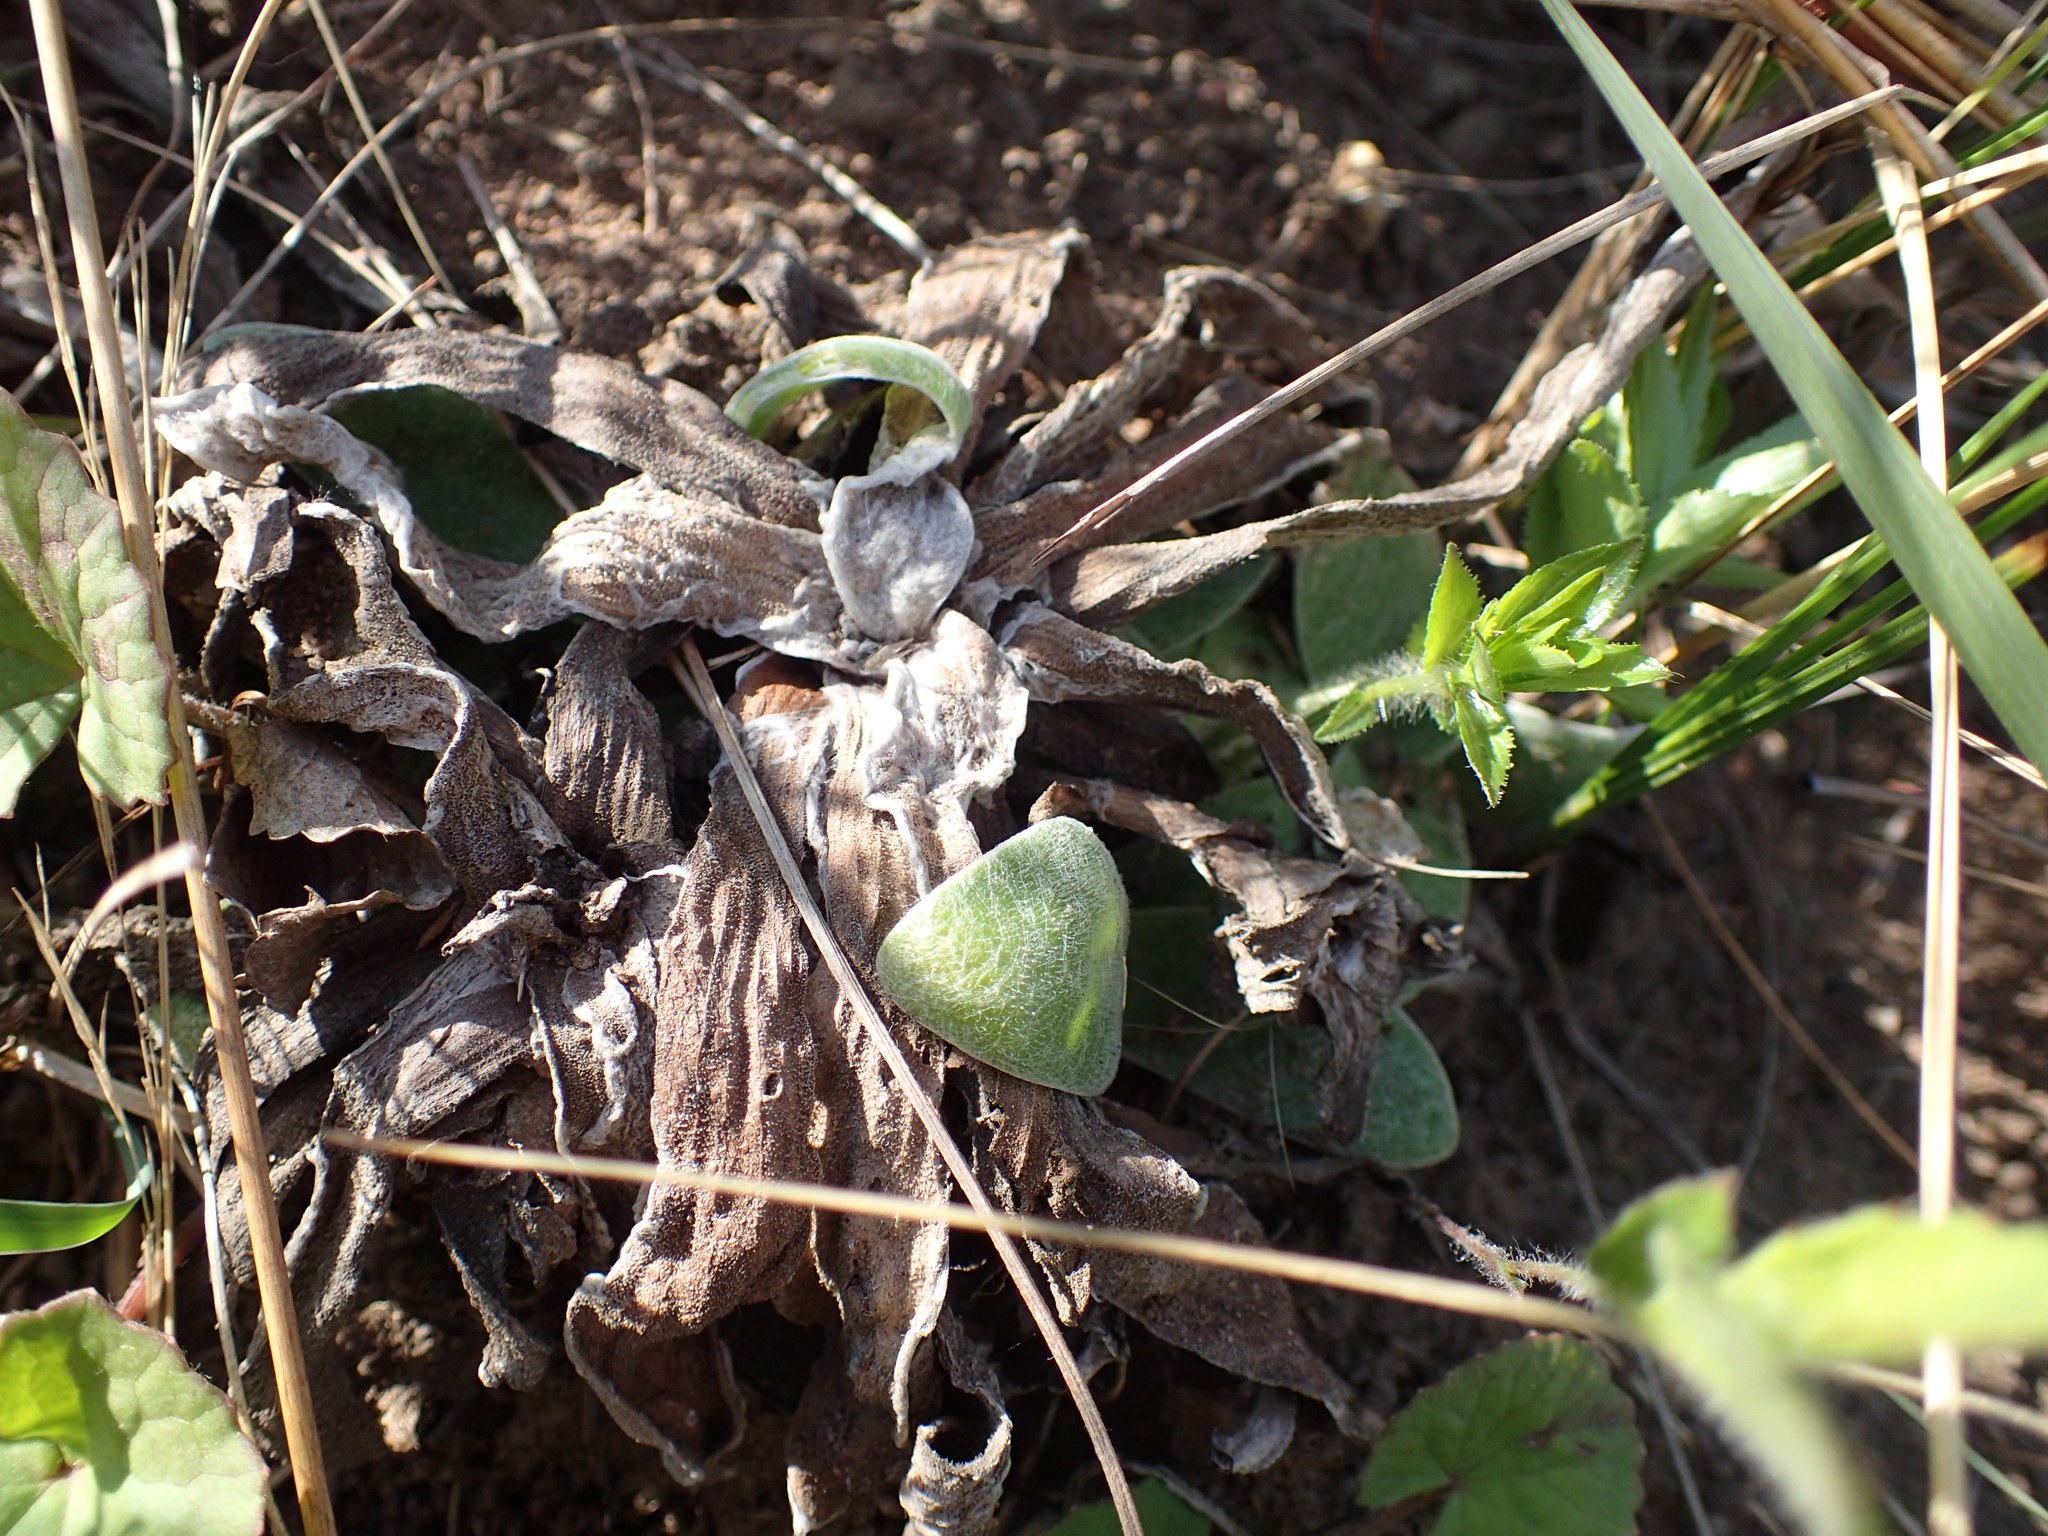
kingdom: Plantae
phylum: Tracheophyta
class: Magnoliopsida
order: Asterales
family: Asteraceae
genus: Helichrysum
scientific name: Helichrysum auriceps
